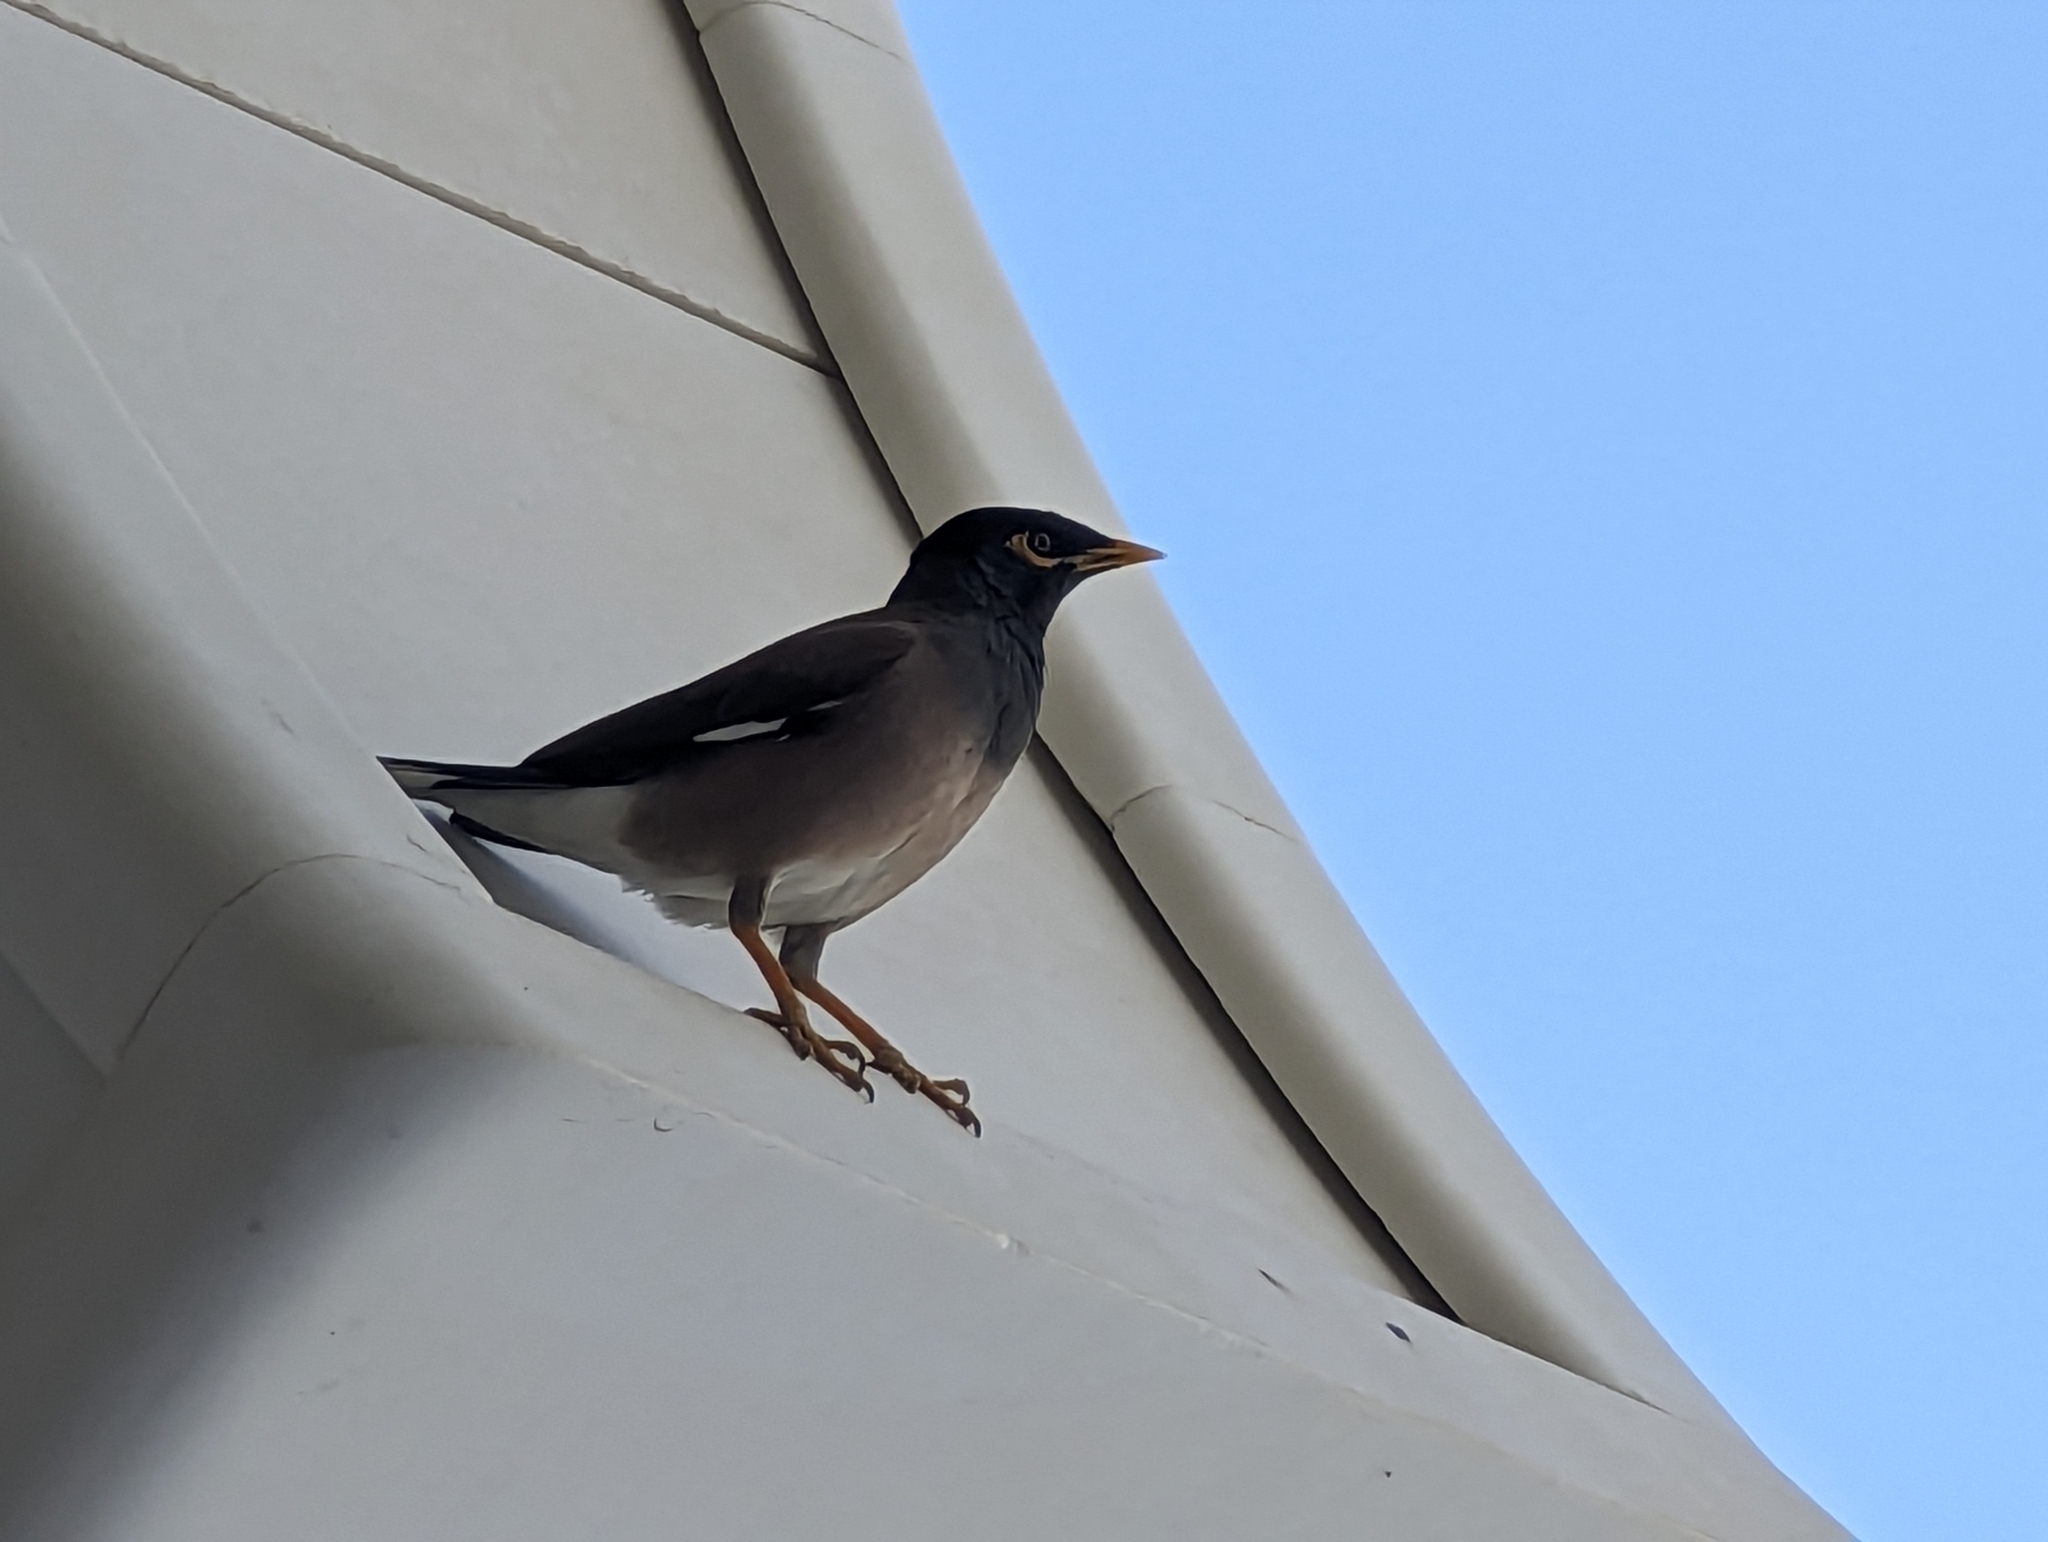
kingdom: Animalia
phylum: Chordata
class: Aves
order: Passeriformes
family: Sturnidae
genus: Acridotheres
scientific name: Acridotheres tristis
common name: Common myna
